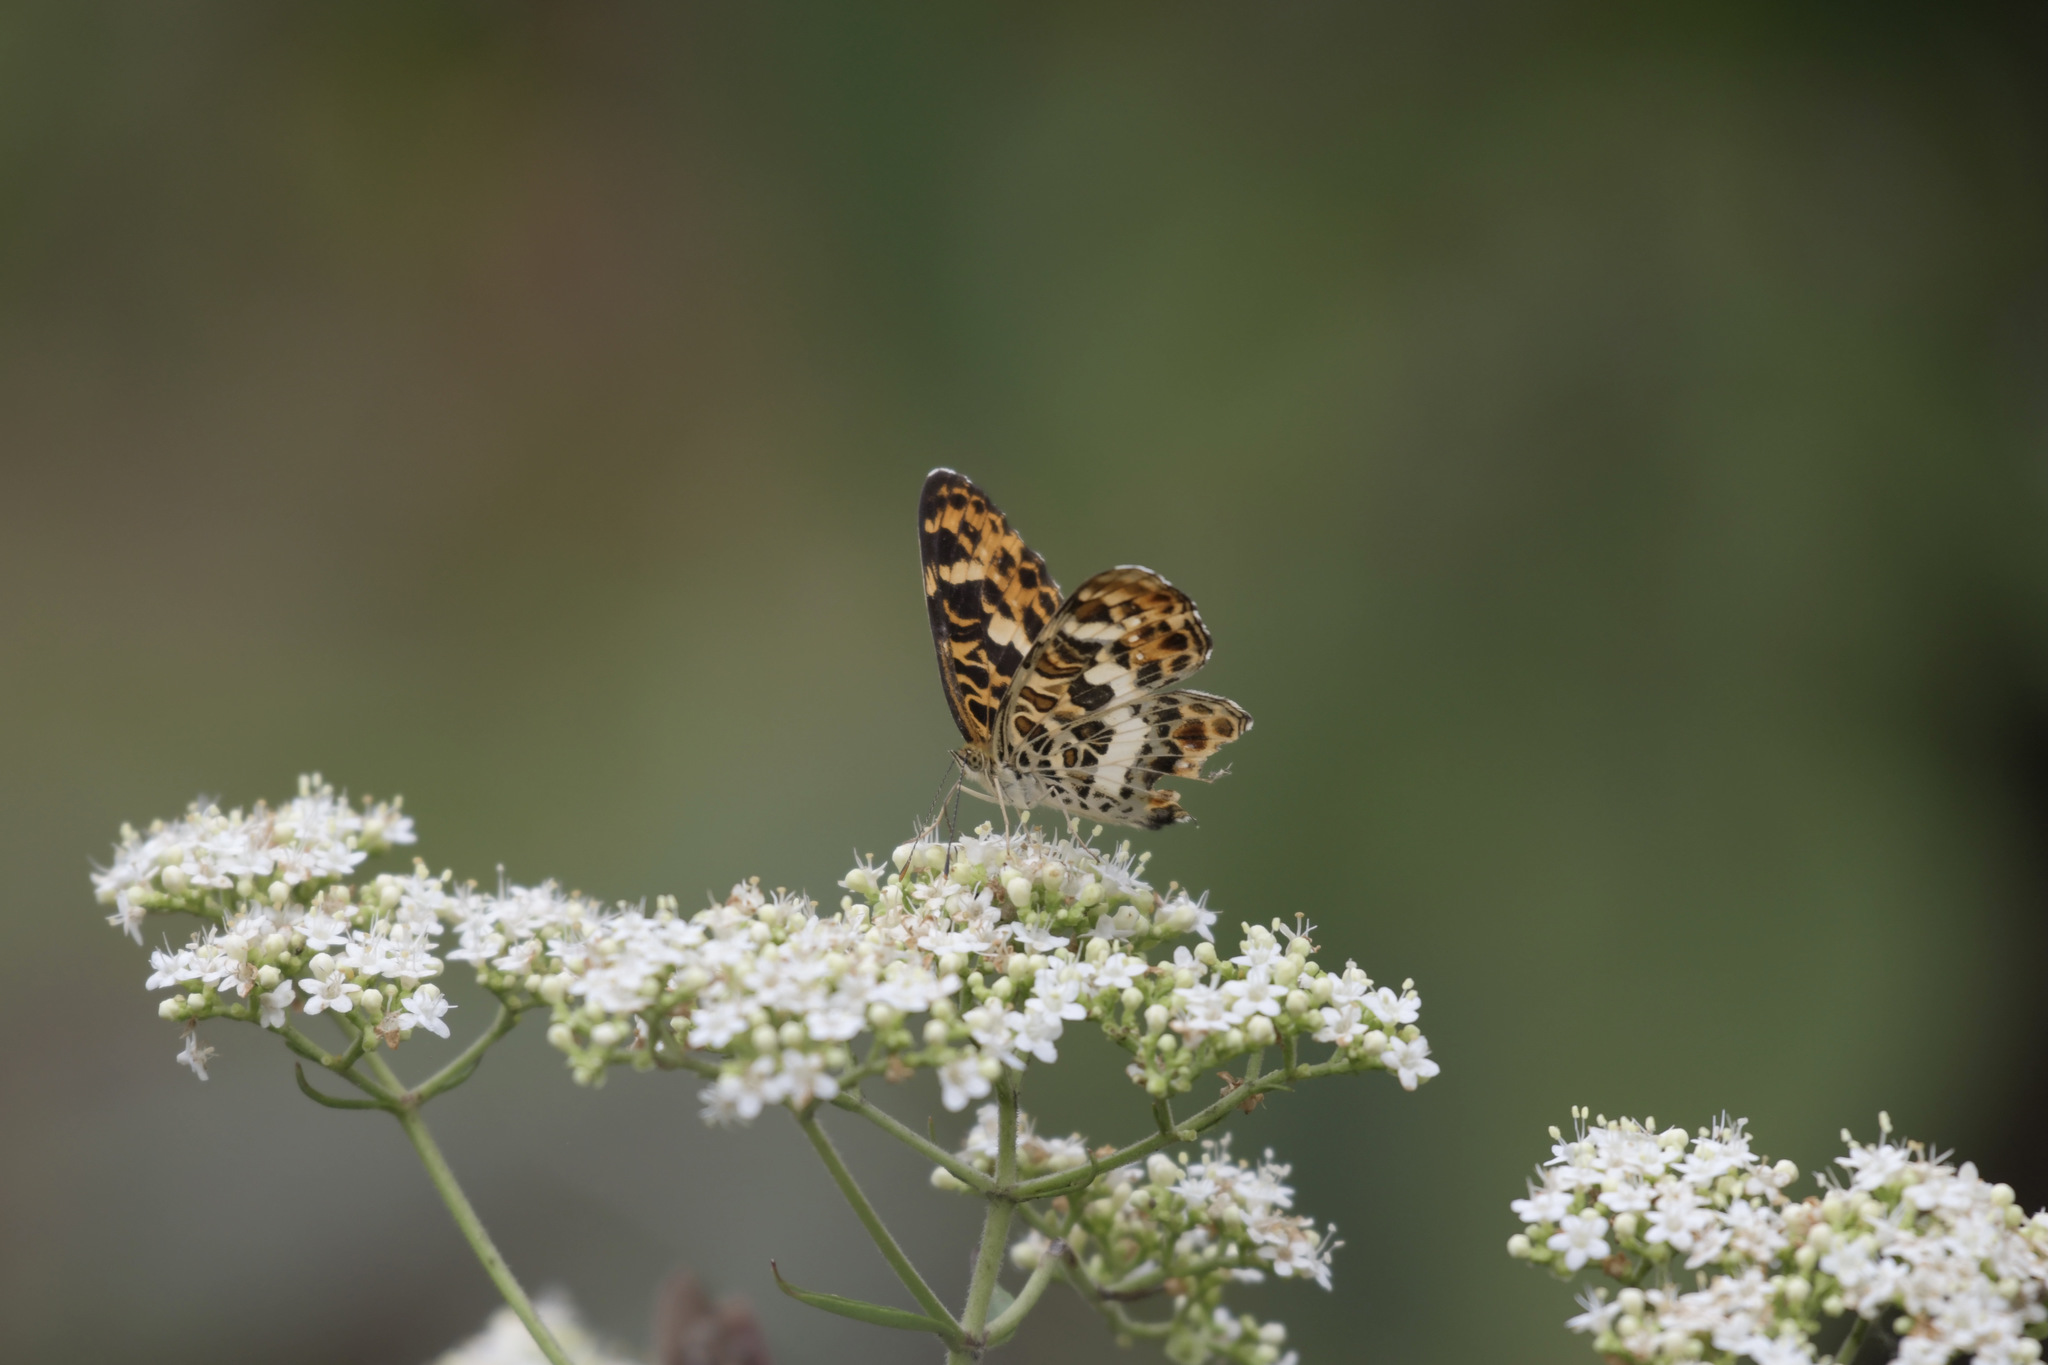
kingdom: Animalia
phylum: Arthropoda
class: Insecta
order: Lepidoptera
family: Nymphalidae
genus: Araschnia
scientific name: Araschnia doris
